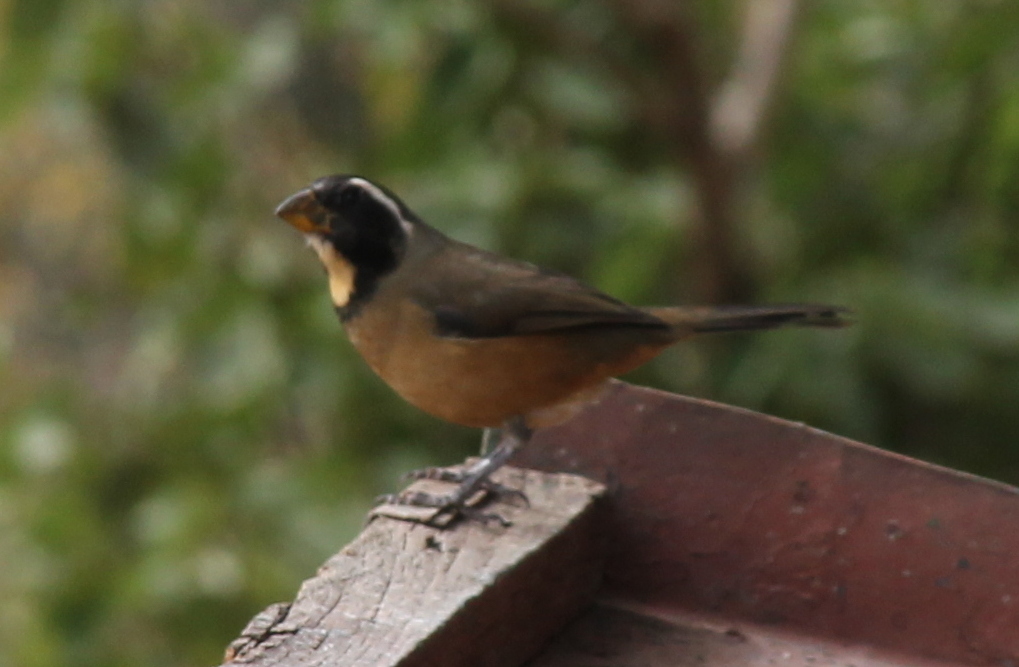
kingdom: Animalia
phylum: Chordata
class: Aves
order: Passeriformes
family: Thraupidae
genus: Saltator
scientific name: Saltator aurantiirostris
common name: Golden-billed saltator
